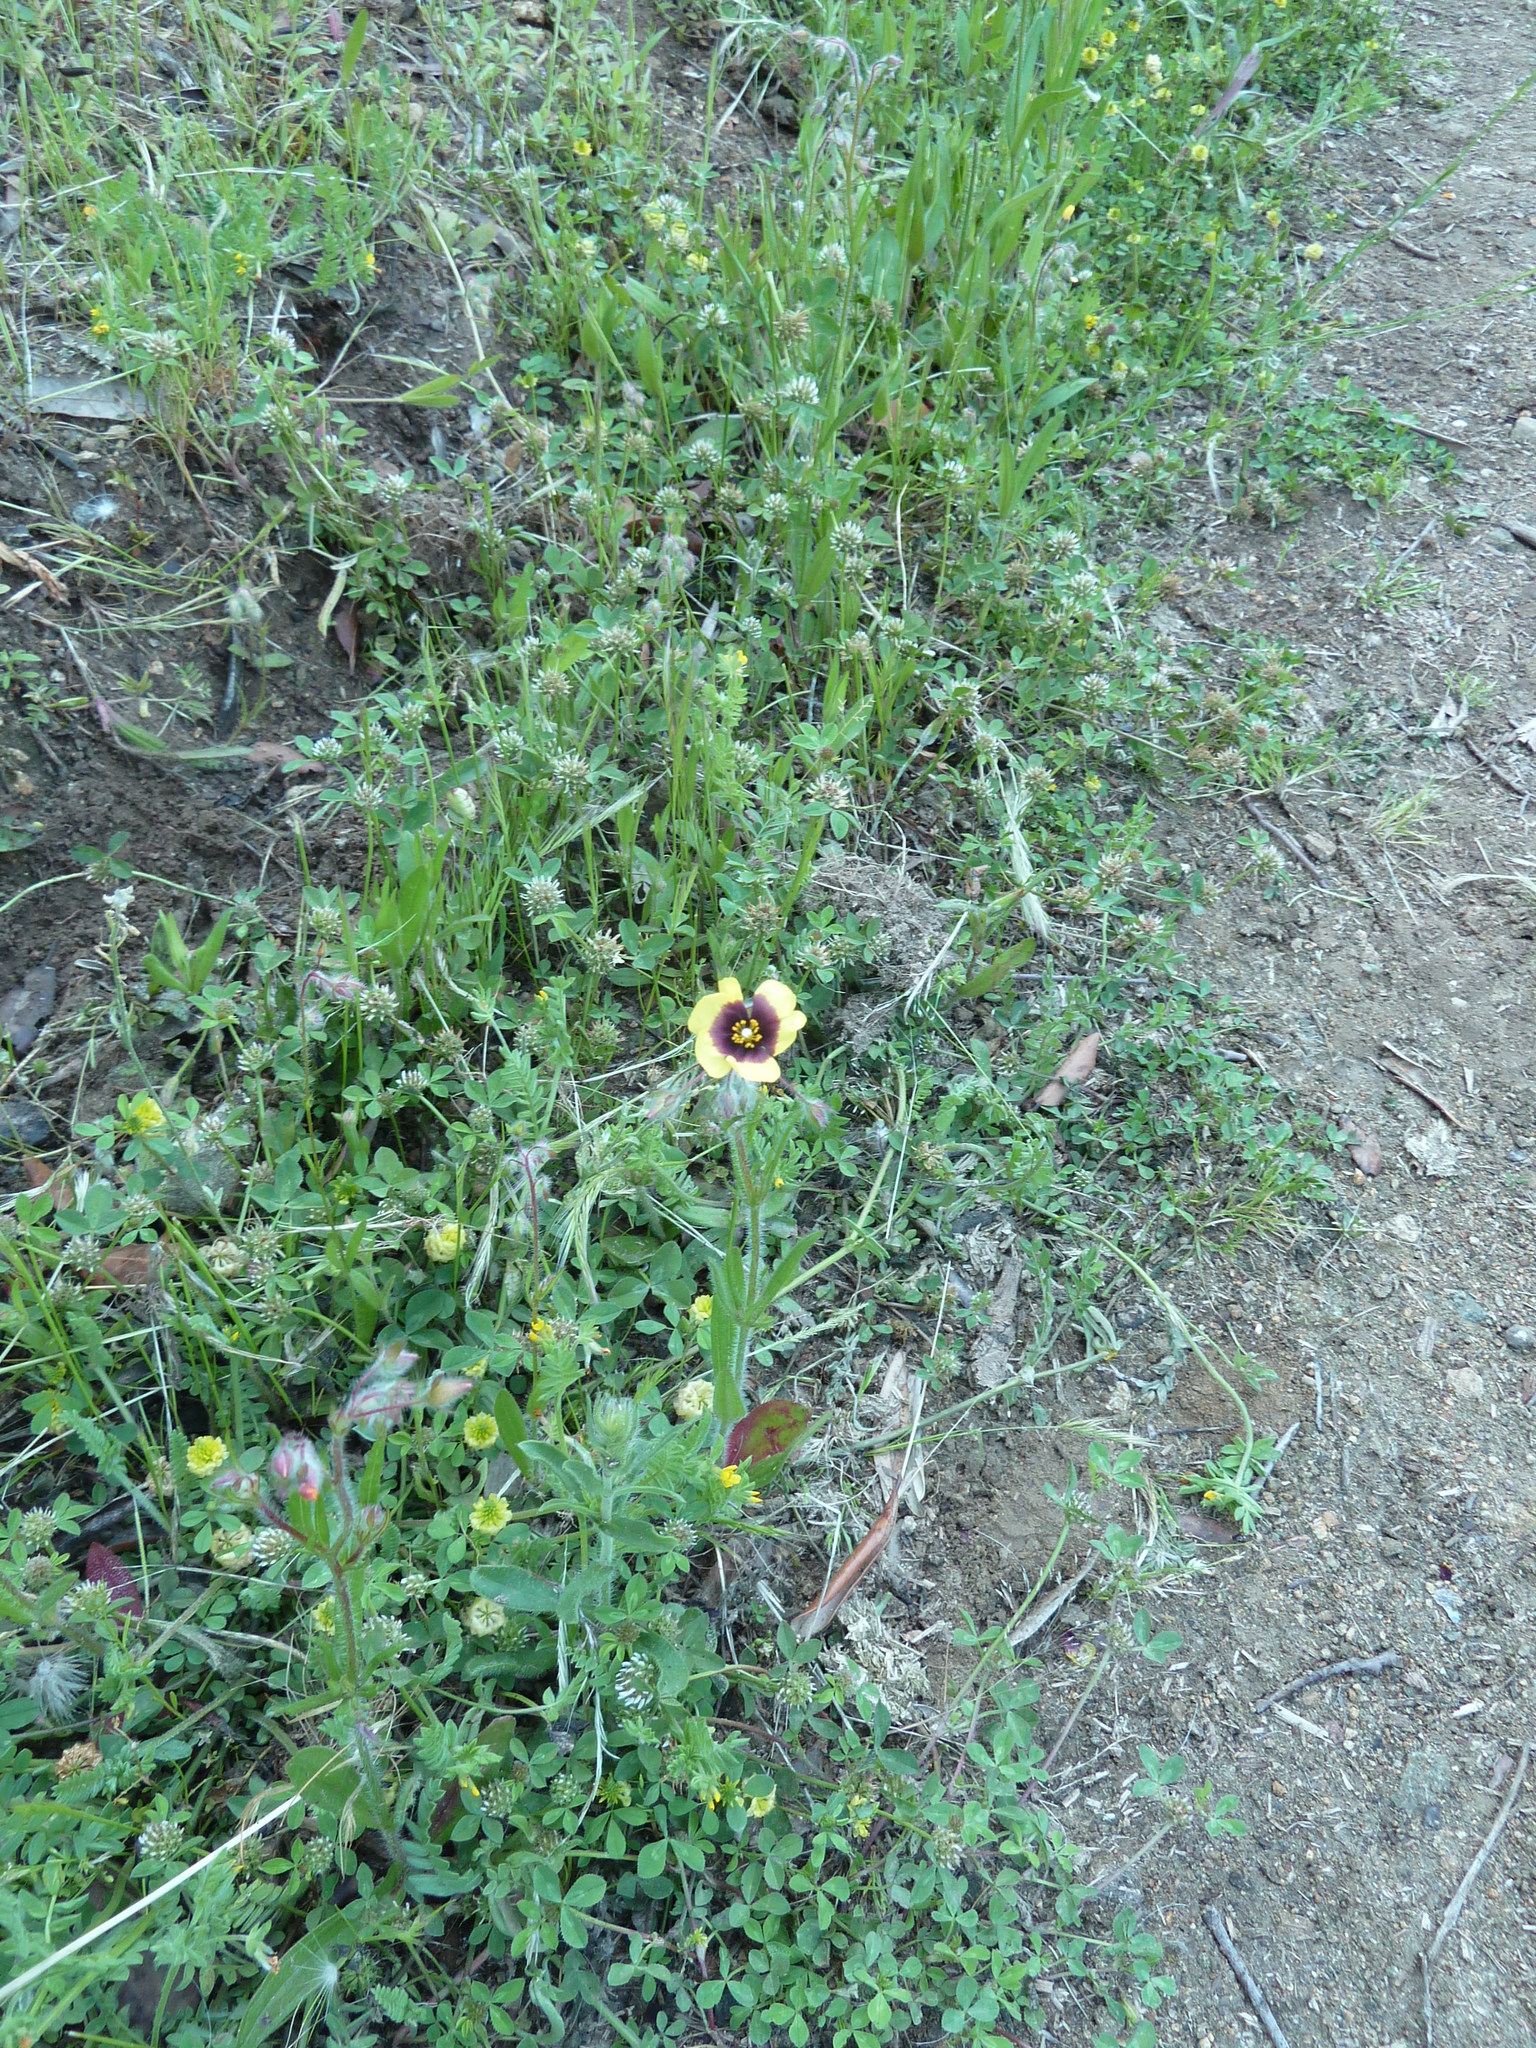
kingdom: Plantae
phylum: Tracheophyta
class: Magnoliopsida
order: Malvales
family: Cistaceae
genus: Tuberaria
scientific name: Tuberaria guttata
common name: Spotted rock-rose
